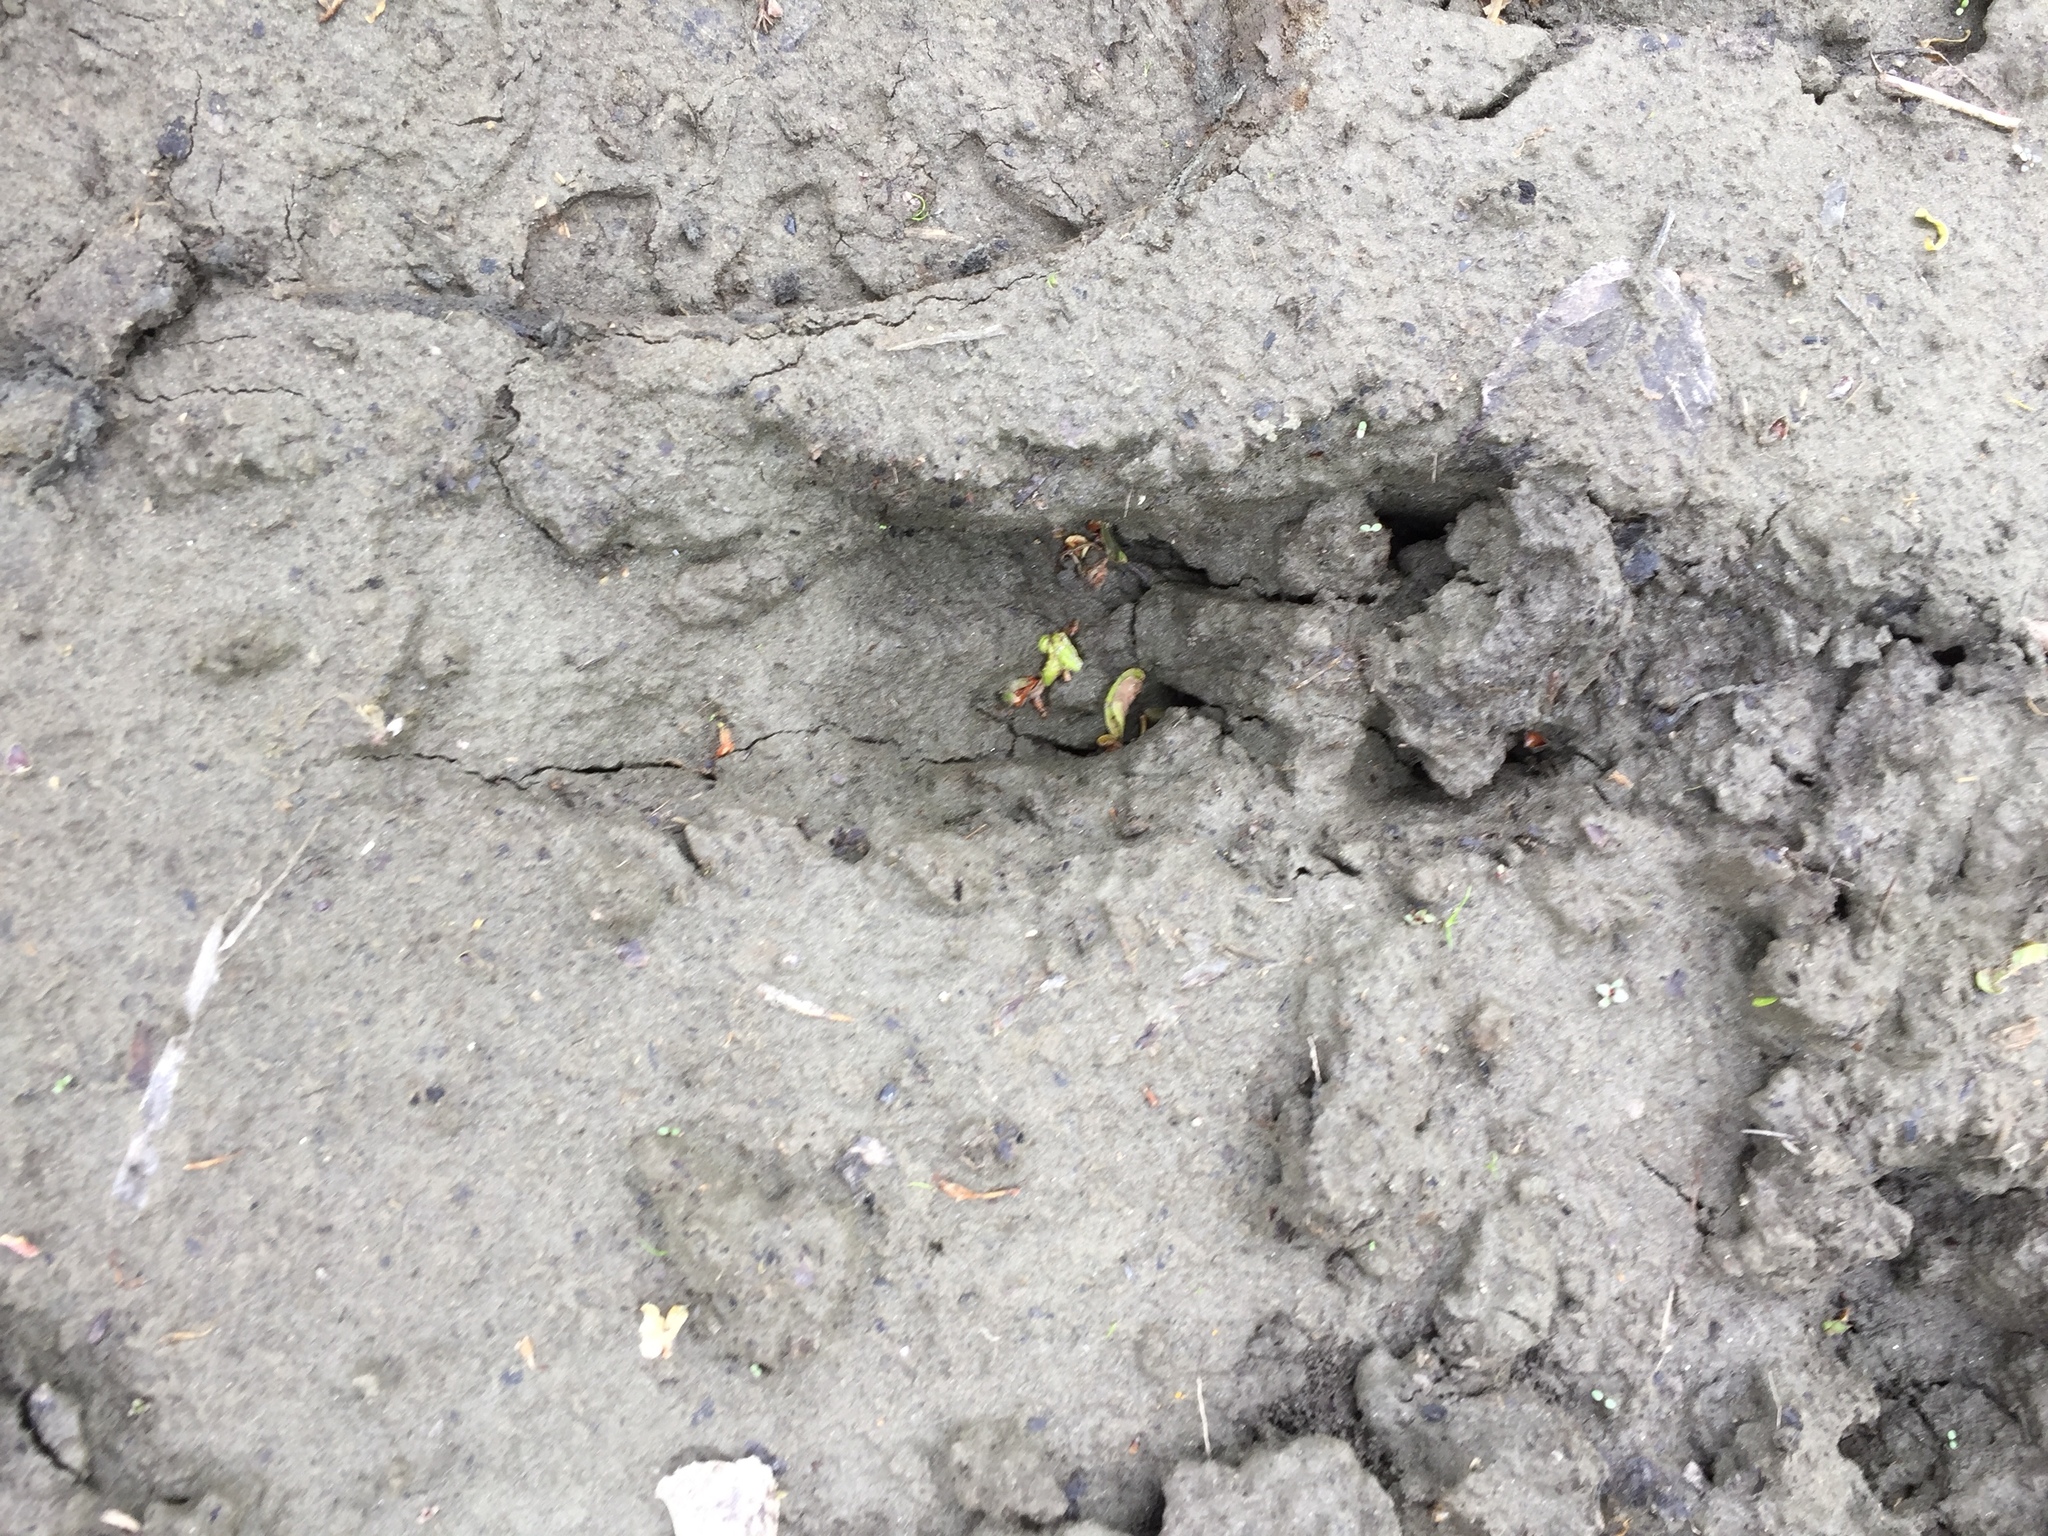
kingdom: Animalia
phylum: Chordata
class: Mammalia
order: Artiodactyla
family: Cervidae
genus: Odocoileus
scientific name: Odocoileus virginianus
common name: White-tailed deer
